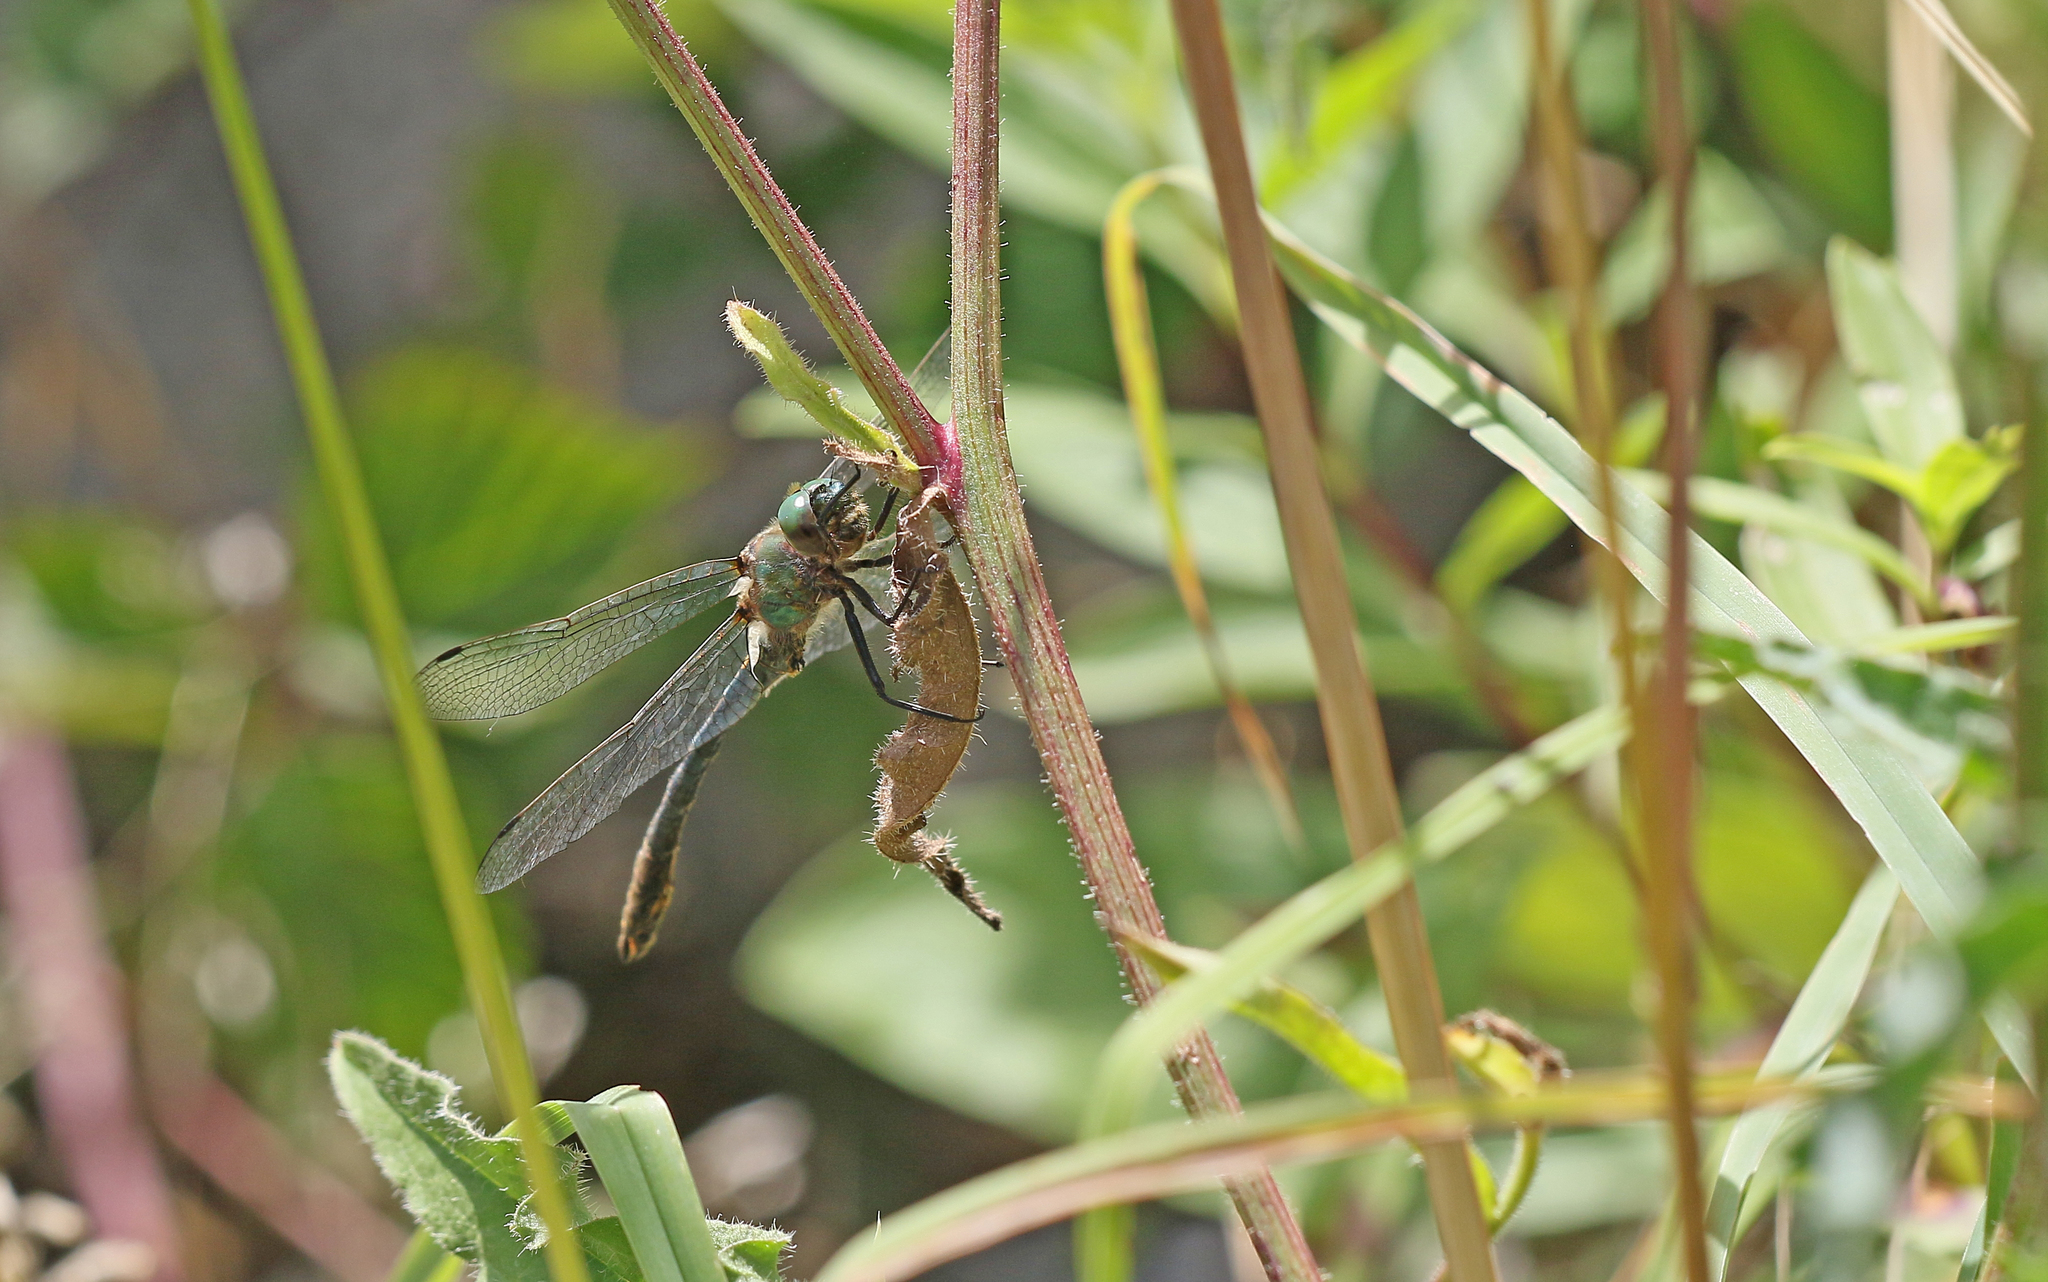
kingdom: Animalia
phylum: Arthropoda
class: Insecta
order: Odonata
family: Corduliidae
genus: Oxygastra
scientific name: Oxygastra curtisii
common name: Orange-spotted emerald
